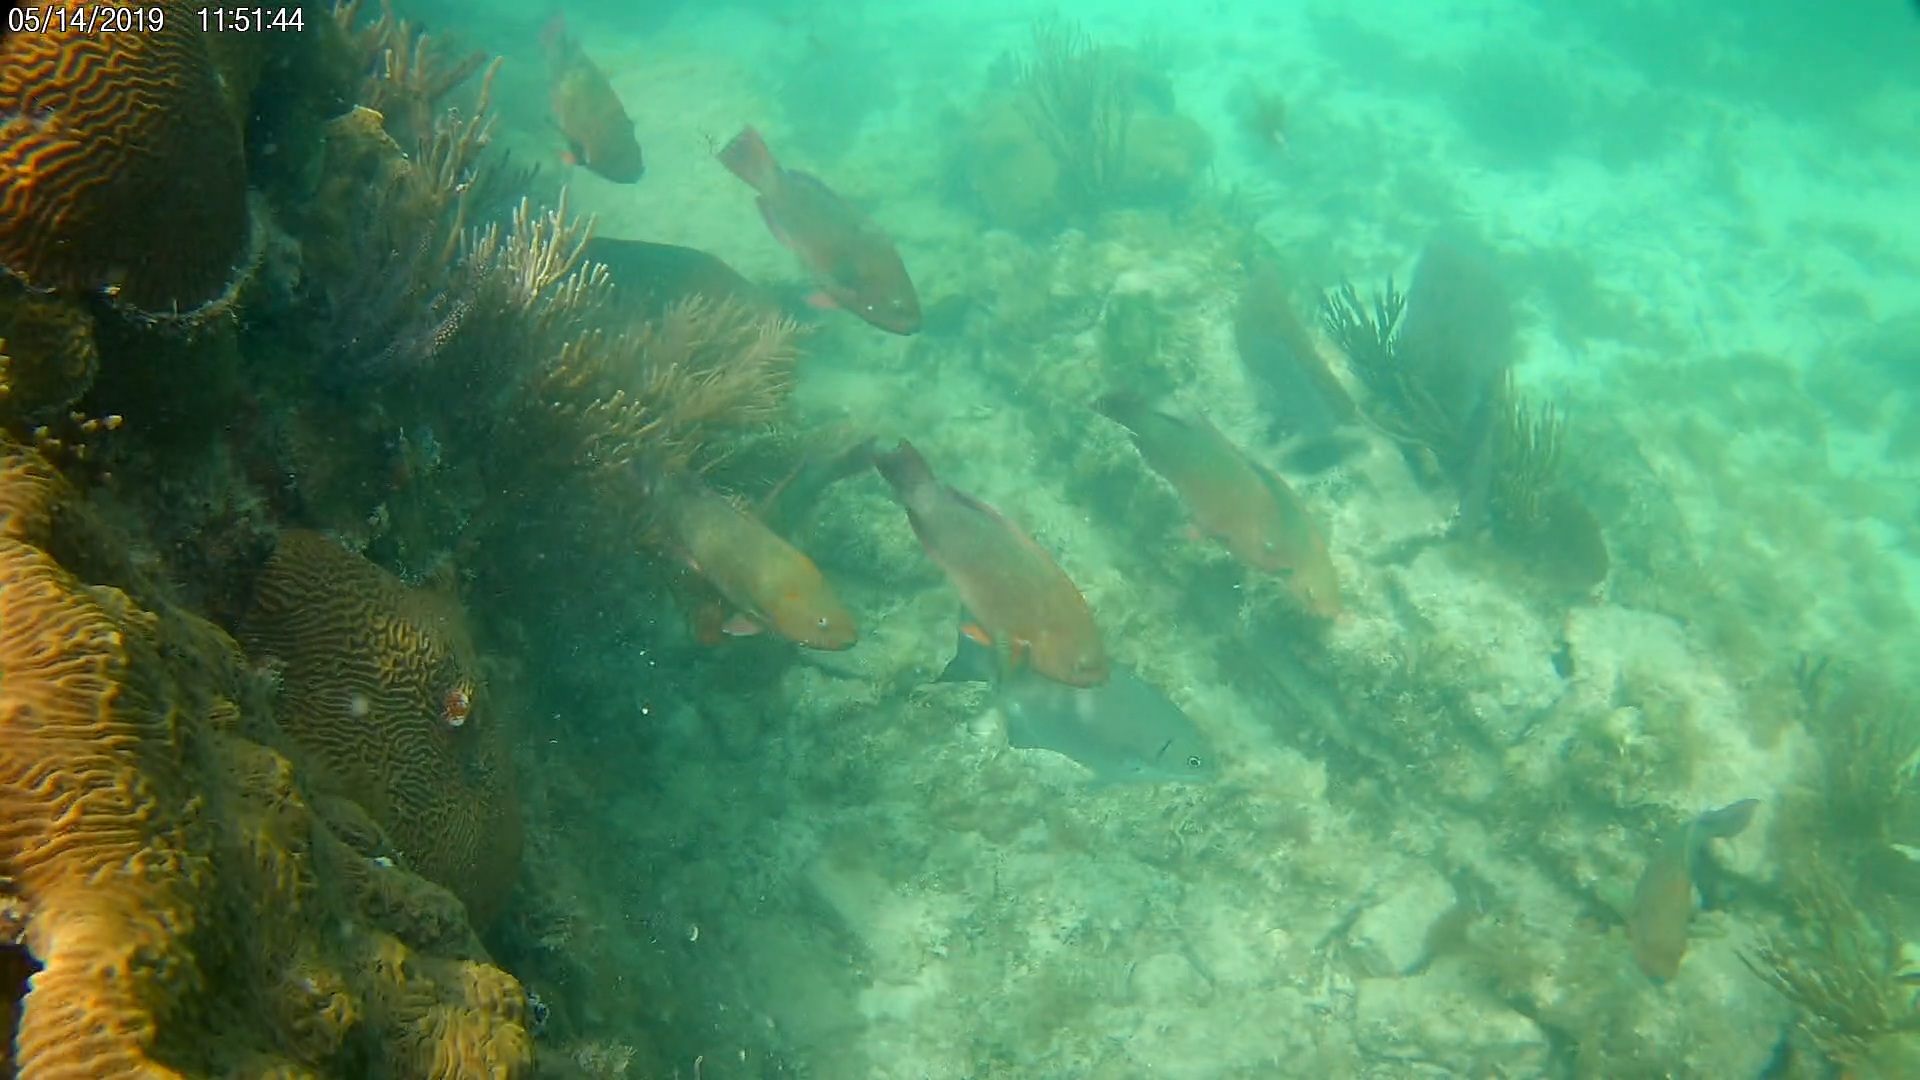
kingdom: Animalia
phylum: Chordata
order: Perciformes
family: Scaridae
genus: Scarus
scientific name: Scarus guacamaia
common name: Rainbow parrotfish
